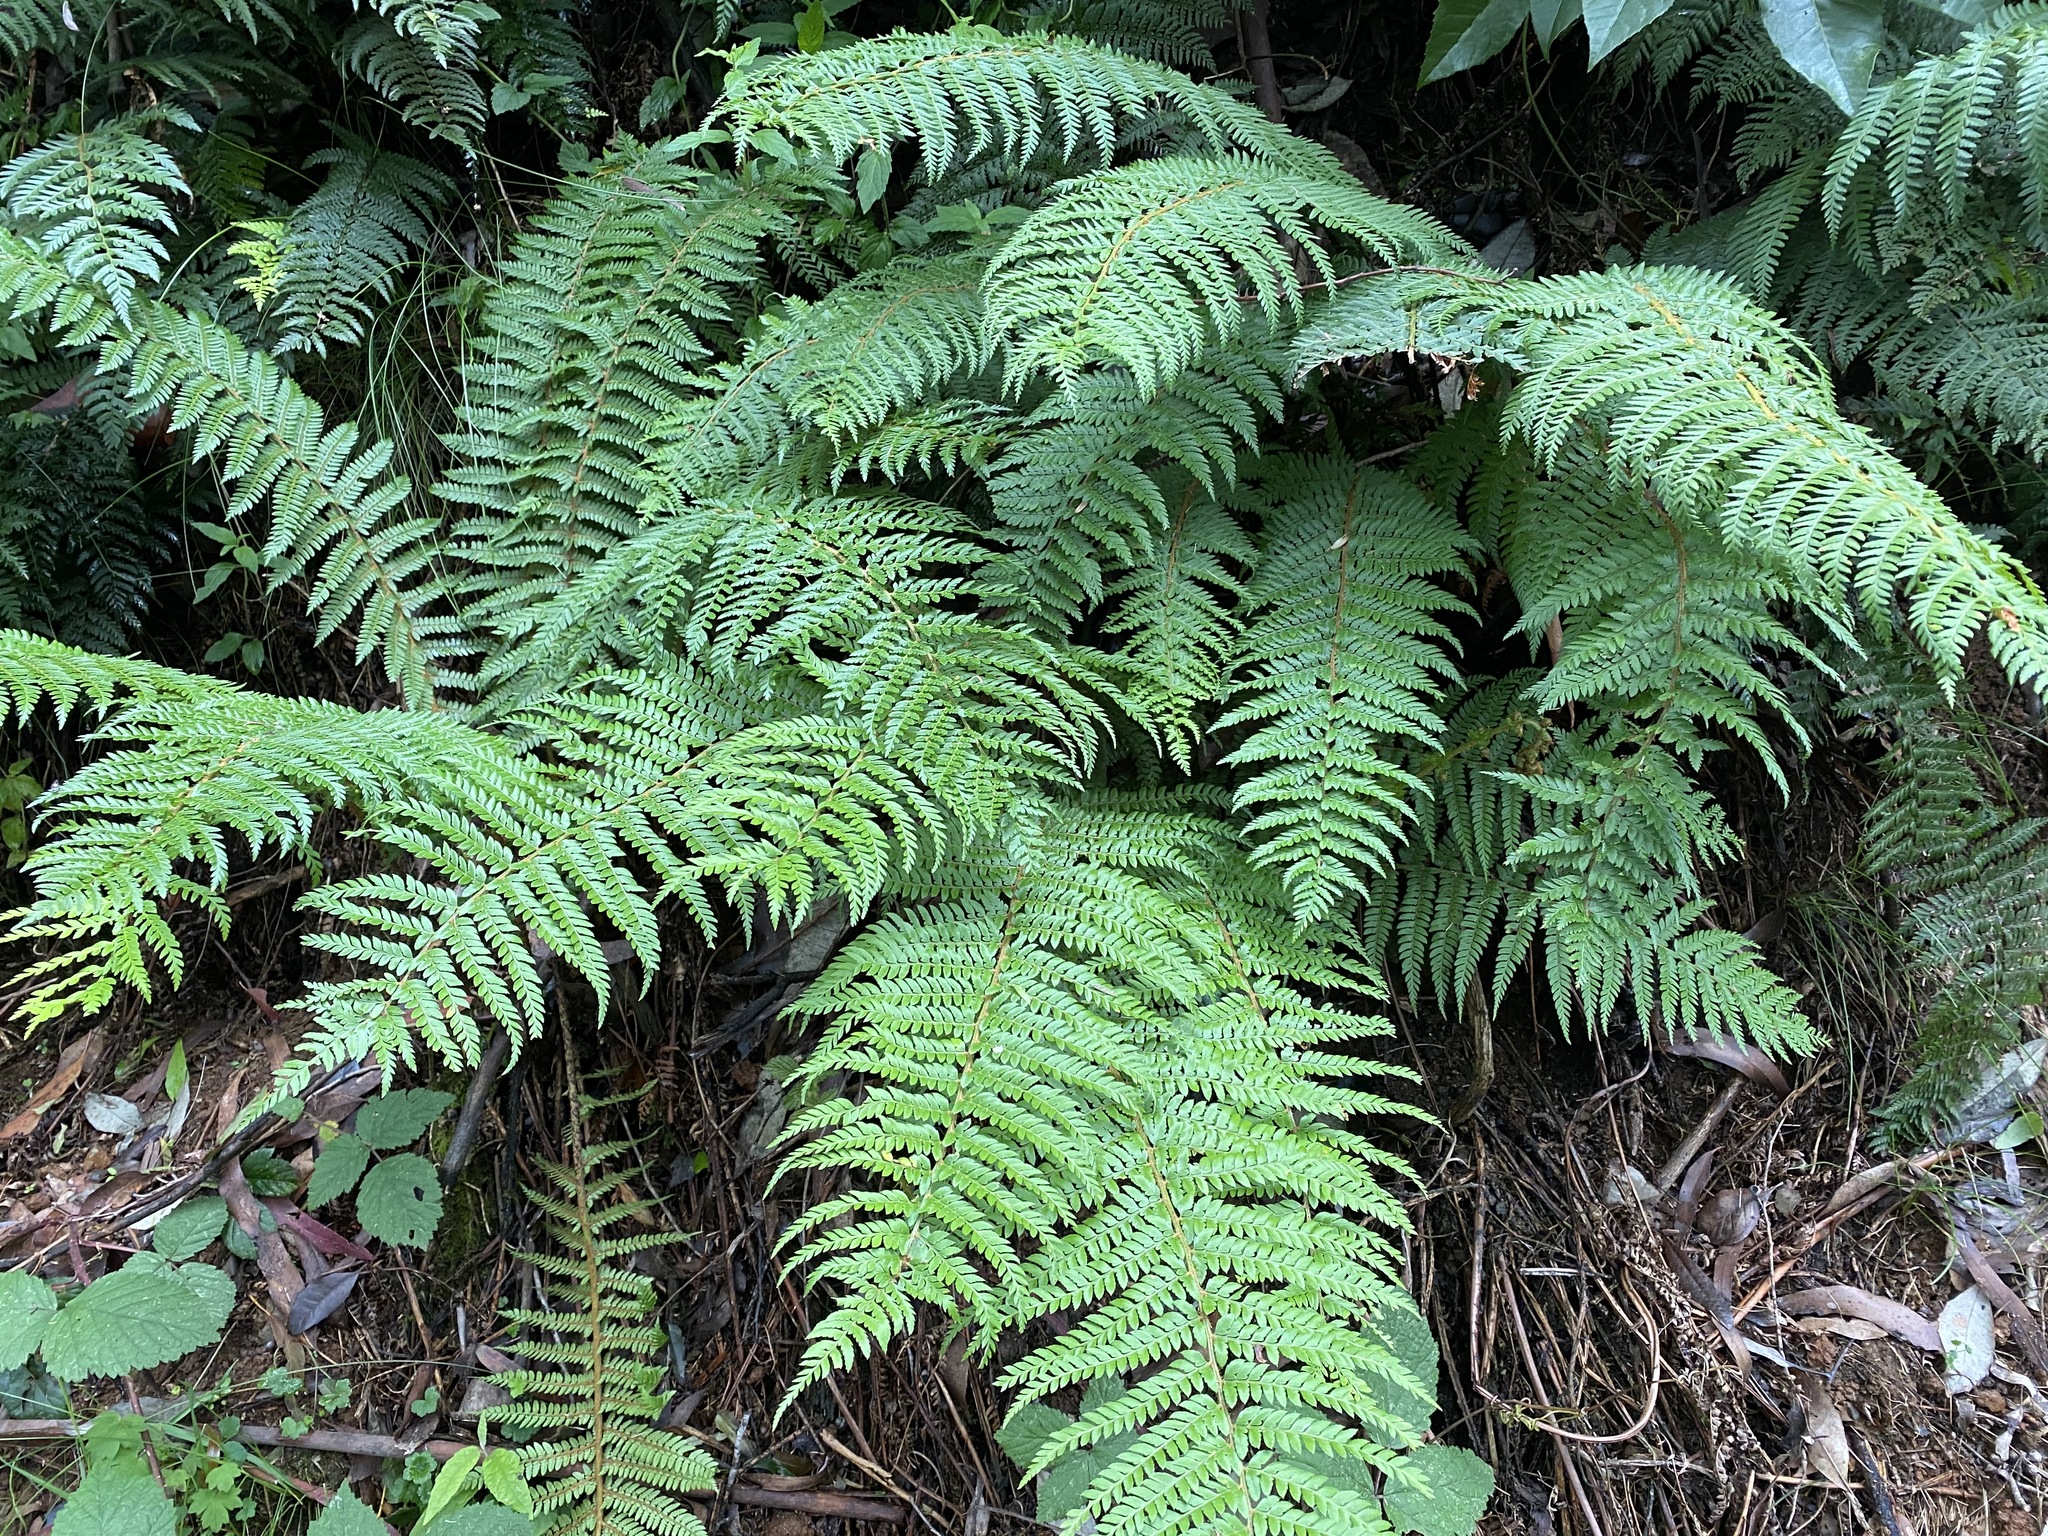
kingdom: Plantae
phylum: Tracheophyta
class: Polypodiopsida
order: Polypodiales
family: Dryopteridaceae
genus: Polystichum
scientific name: Polystichum proliferum
